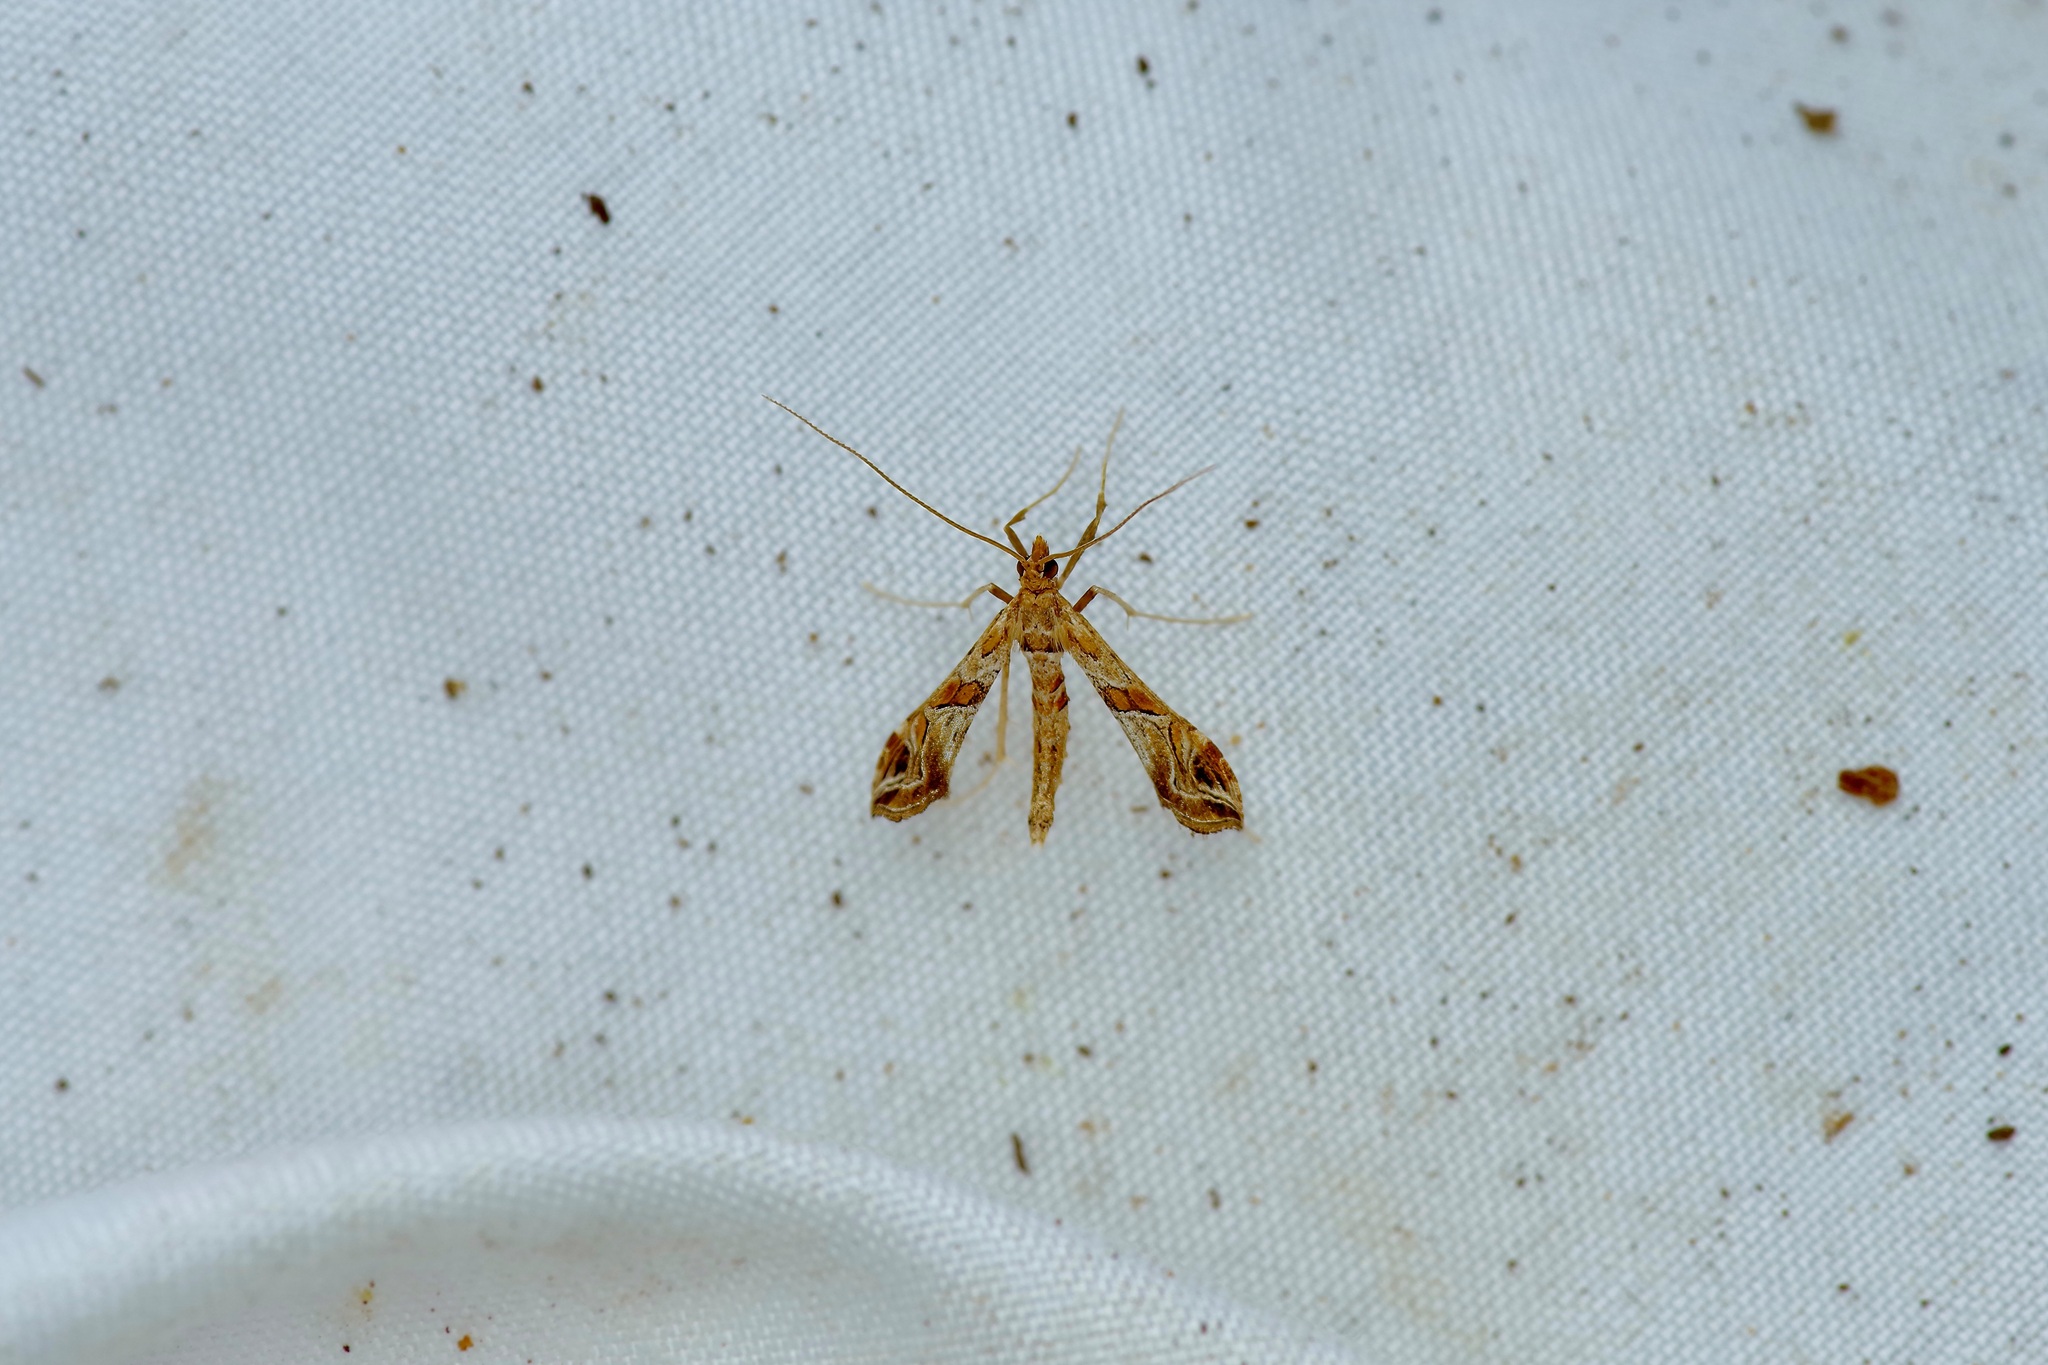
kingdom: Animalia
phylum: Arthropoda
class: Insecta
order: Lepidoptera
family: Crambidae
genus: Lineodes
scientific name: Lineodes interrupta
